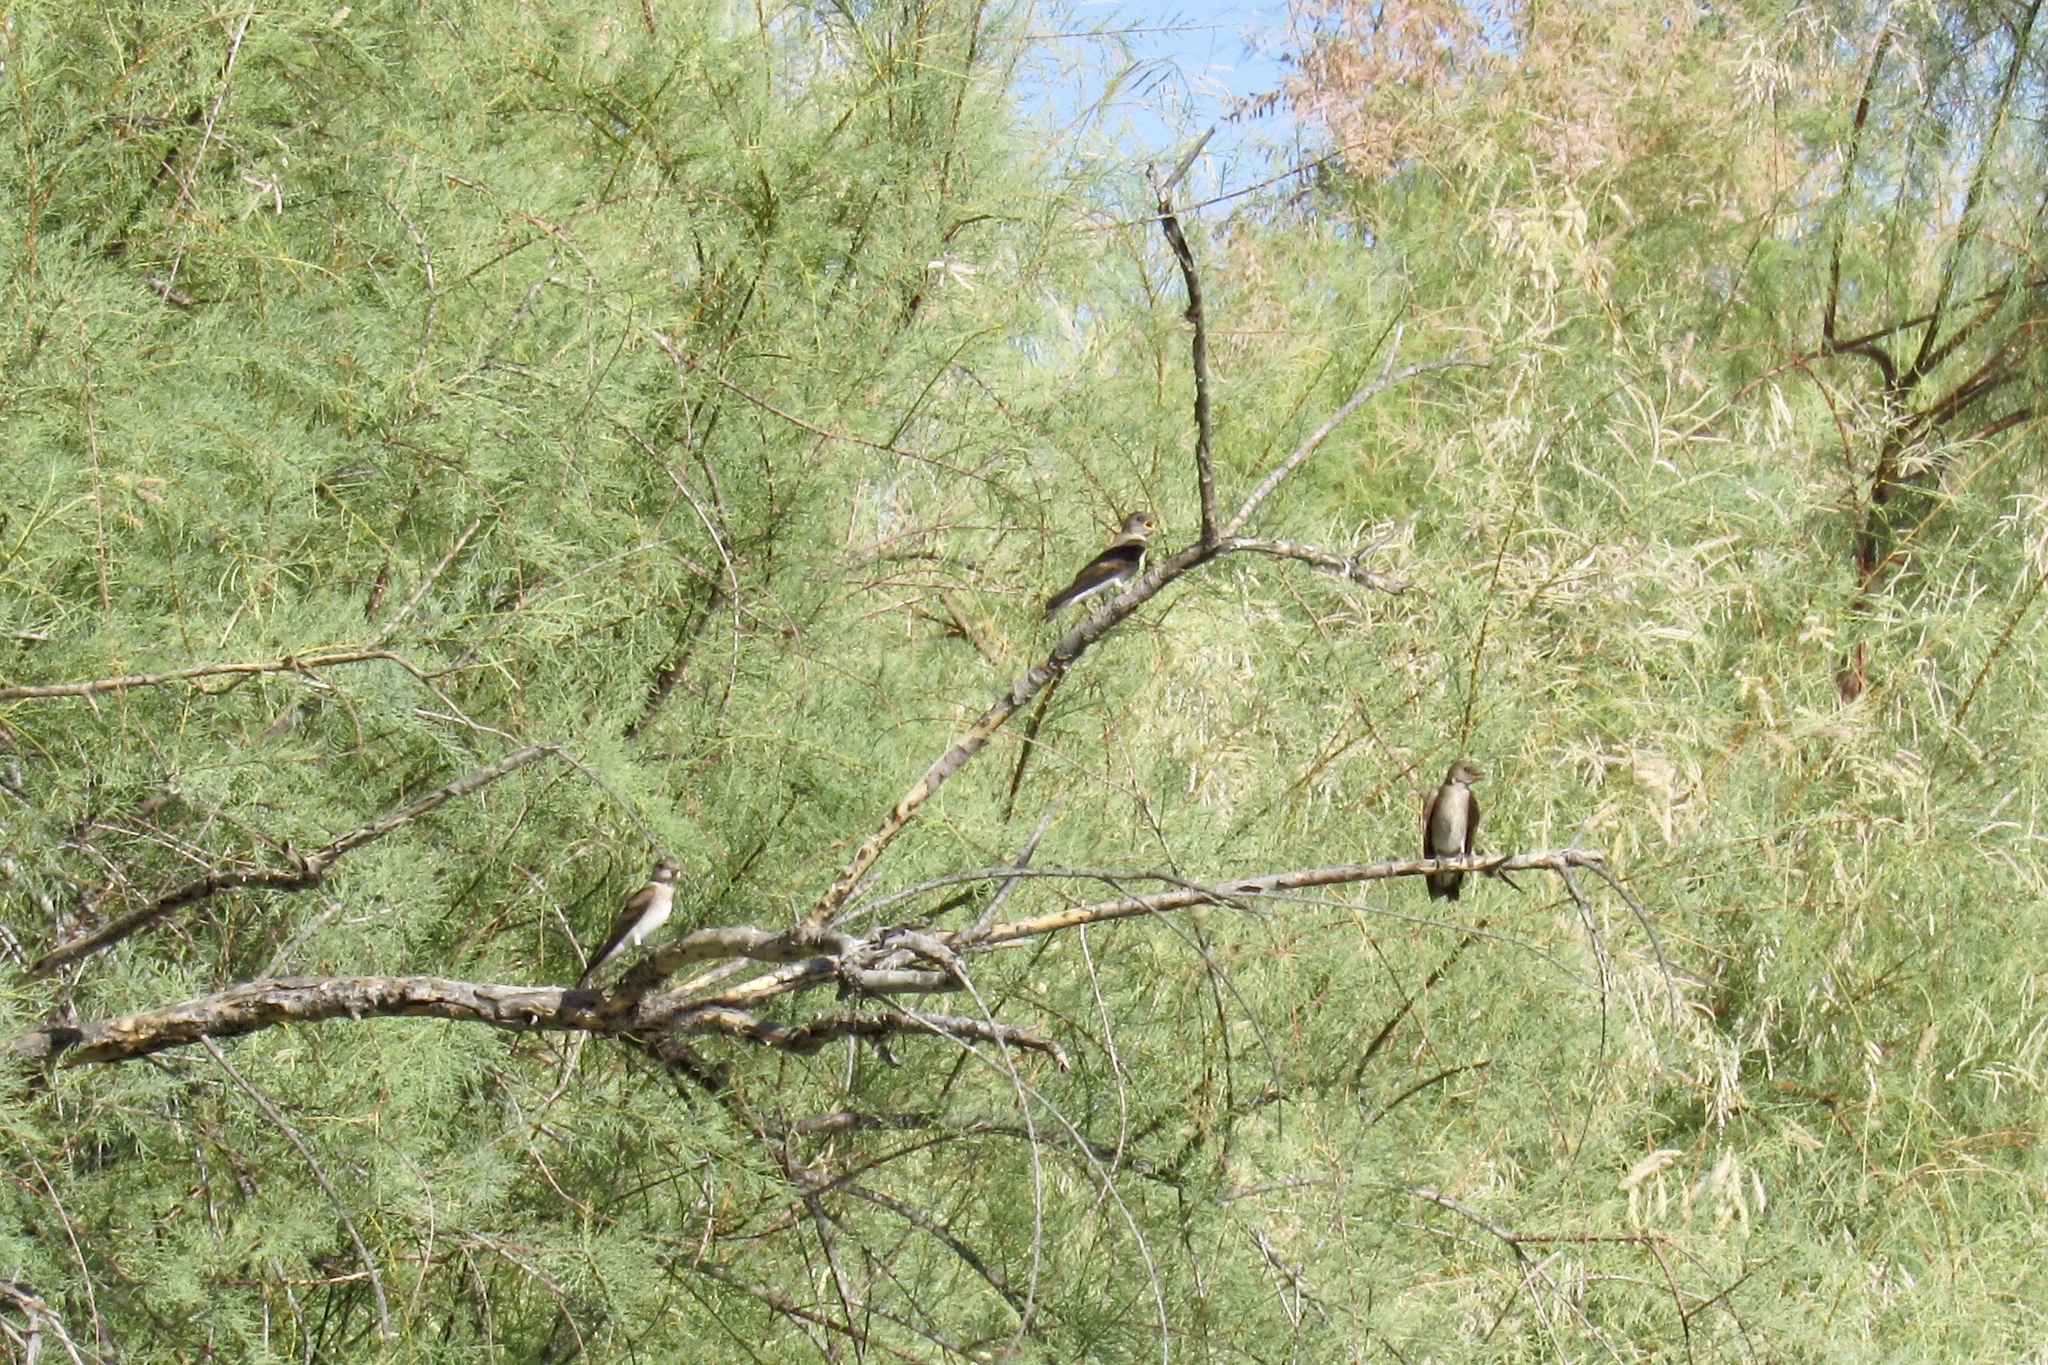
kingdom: Animalia
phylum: Chordata
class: Aves
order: Passeriformes
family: Hirundinidae
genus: Stelgidopteryx
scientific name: Stelgidopteryx serripennis
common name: Northern rough-winged swallow
